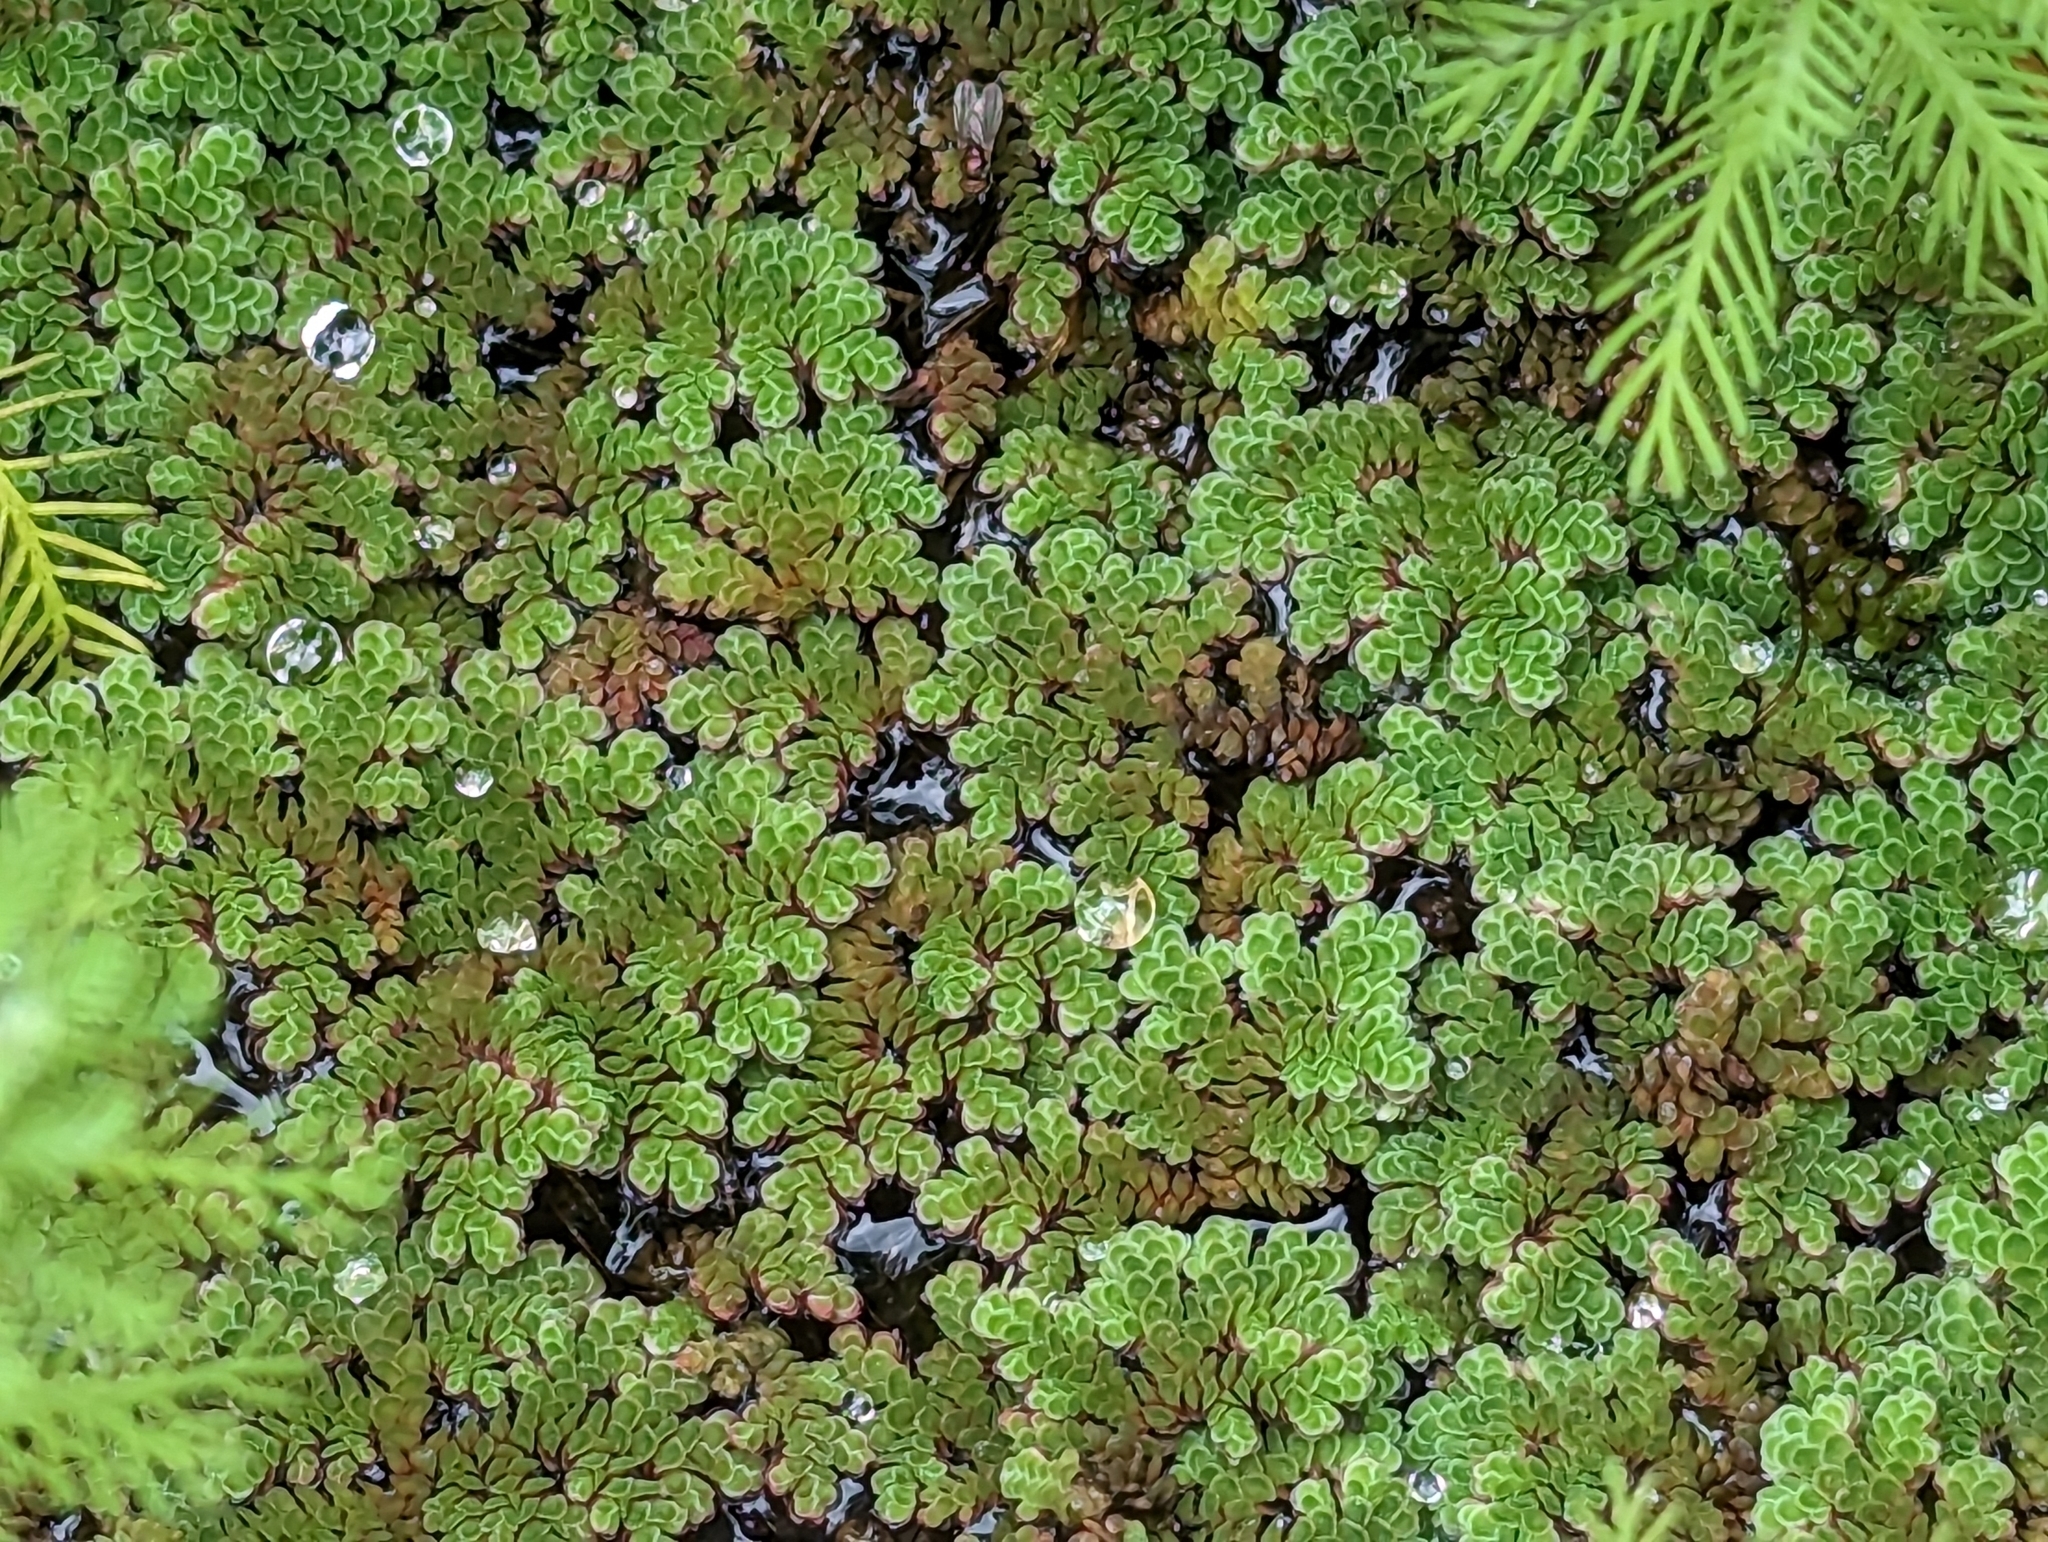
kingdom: Plantae
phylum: Tracheophyta
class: Polypodiopsida
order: Salviniales
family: Salviniaceae
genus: Azolla
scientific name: Azolla filiculoides
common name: Water fern
